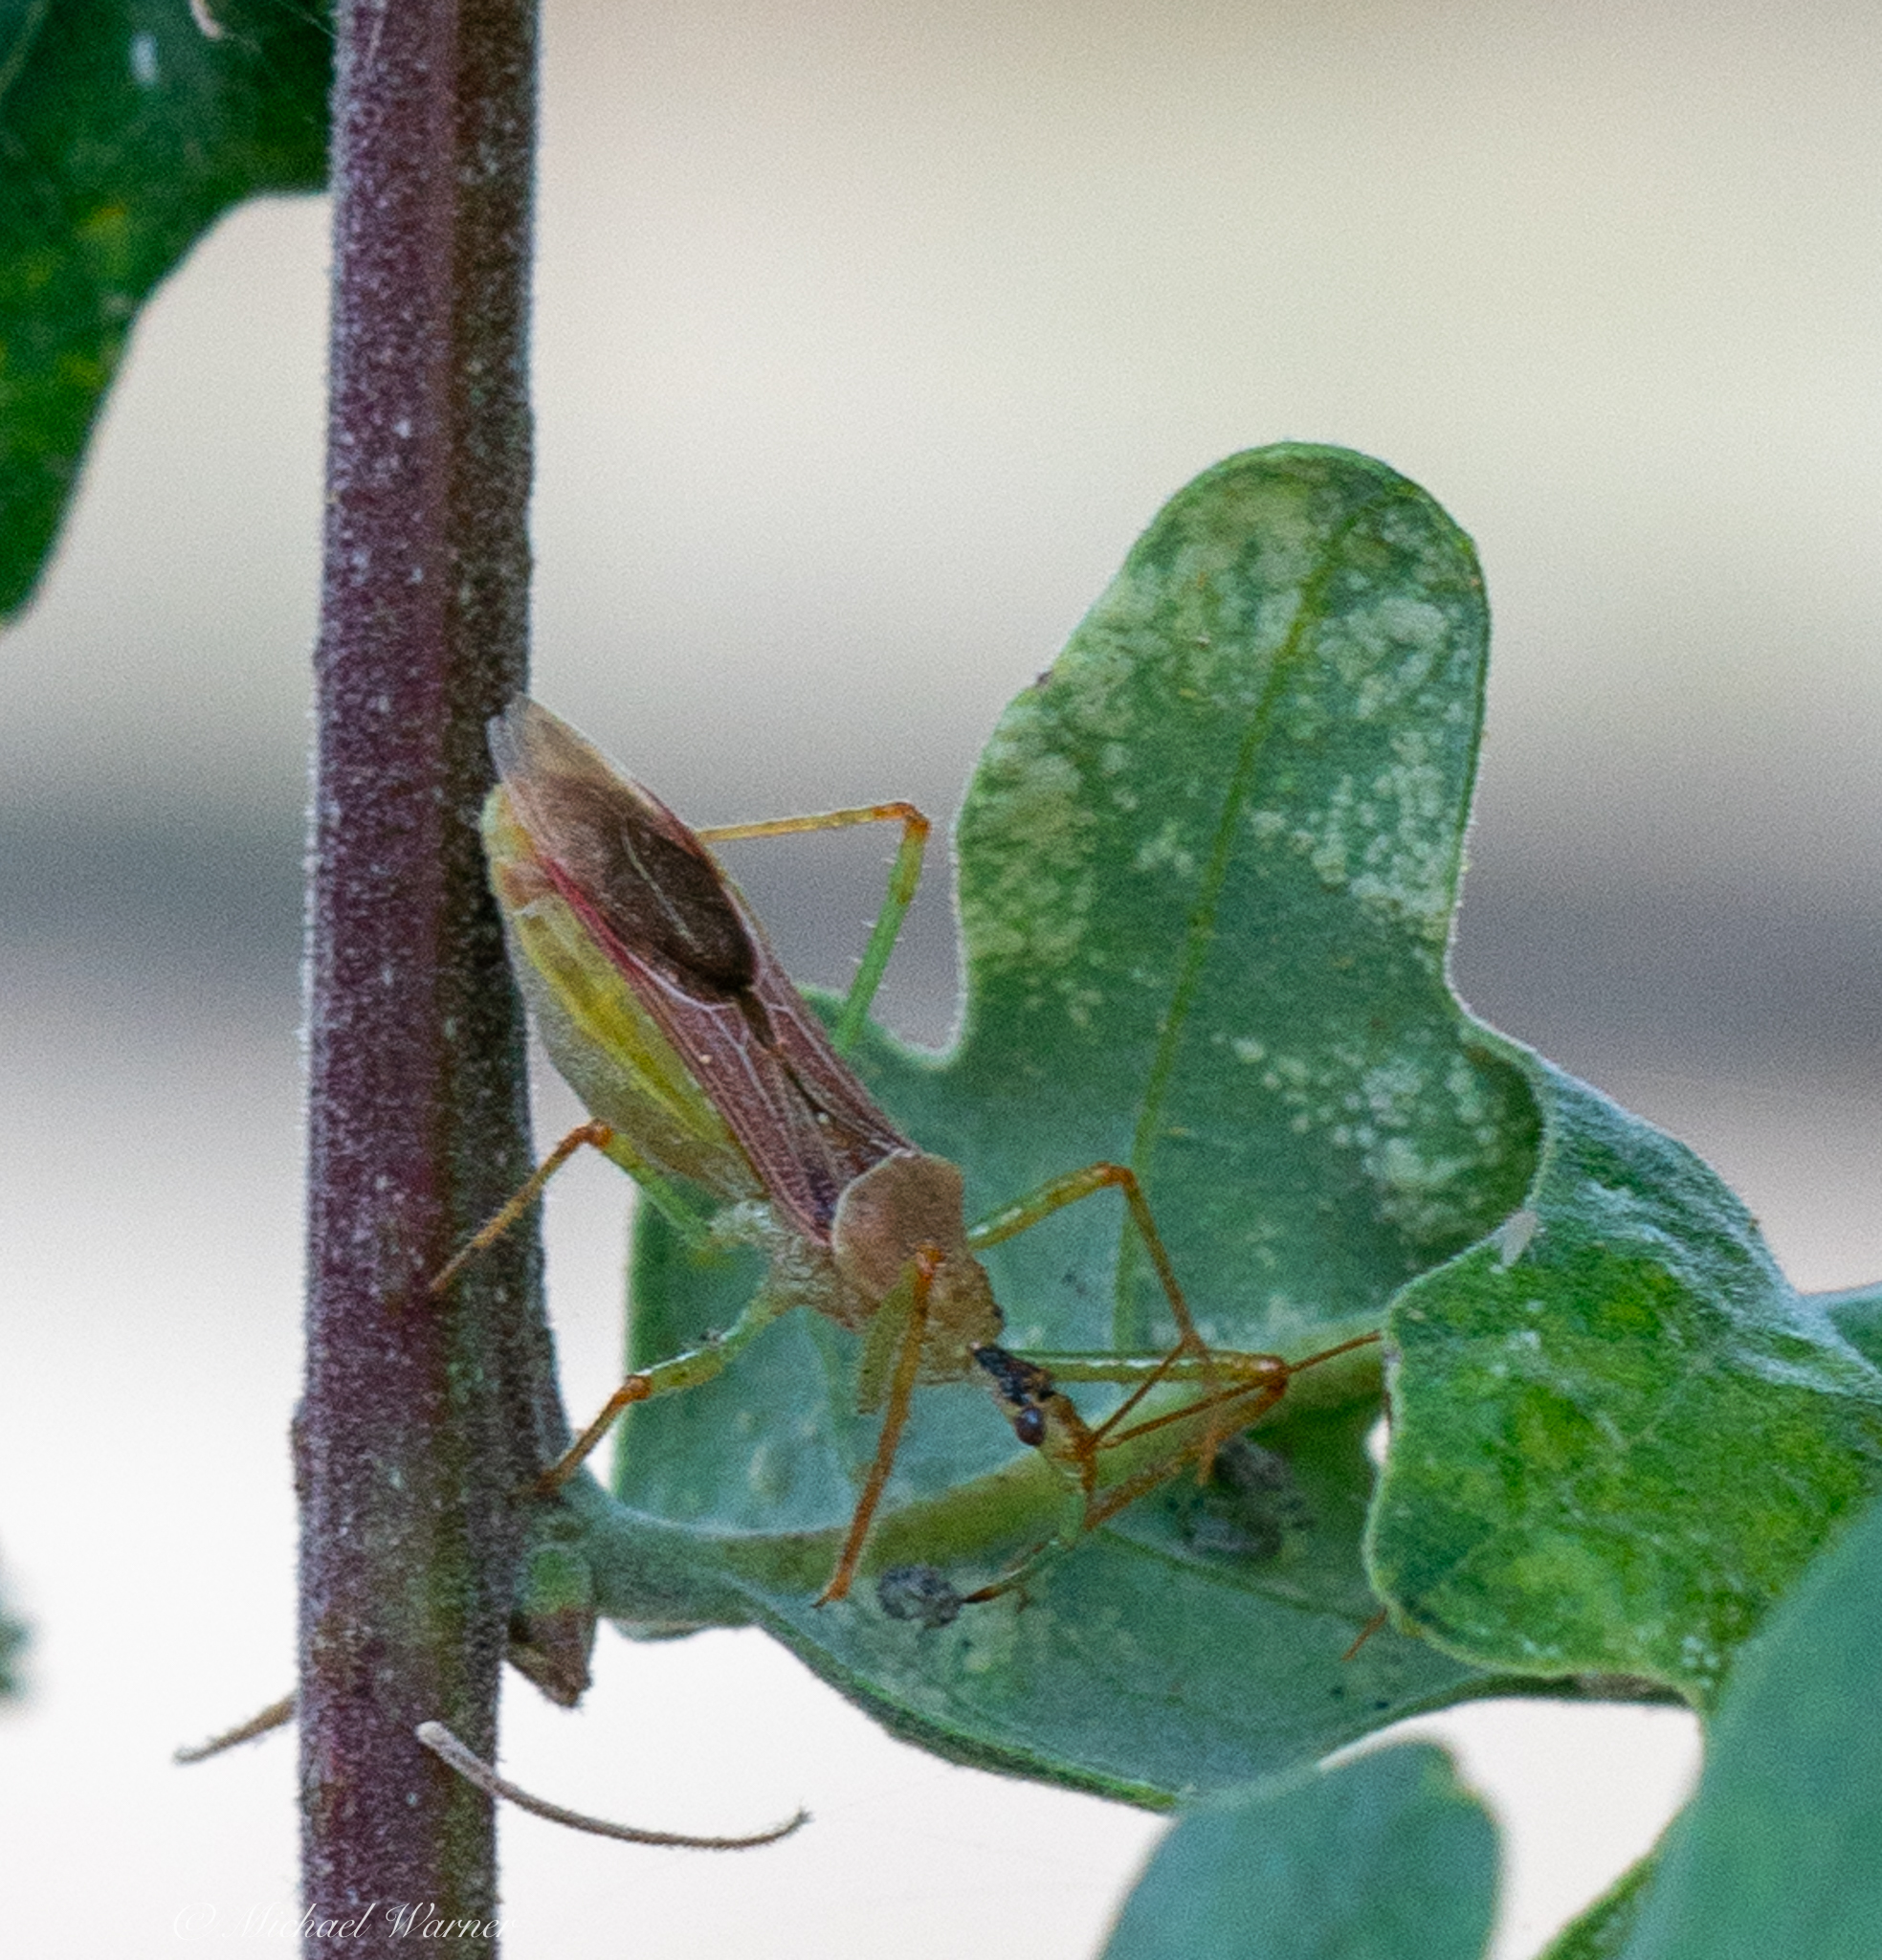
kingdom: Animalia
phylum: Arthropoda
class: Insecta
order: Hemiptera
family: Reduviidae
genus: Zelus
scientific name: Zelus renardii
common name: Assassin bug
